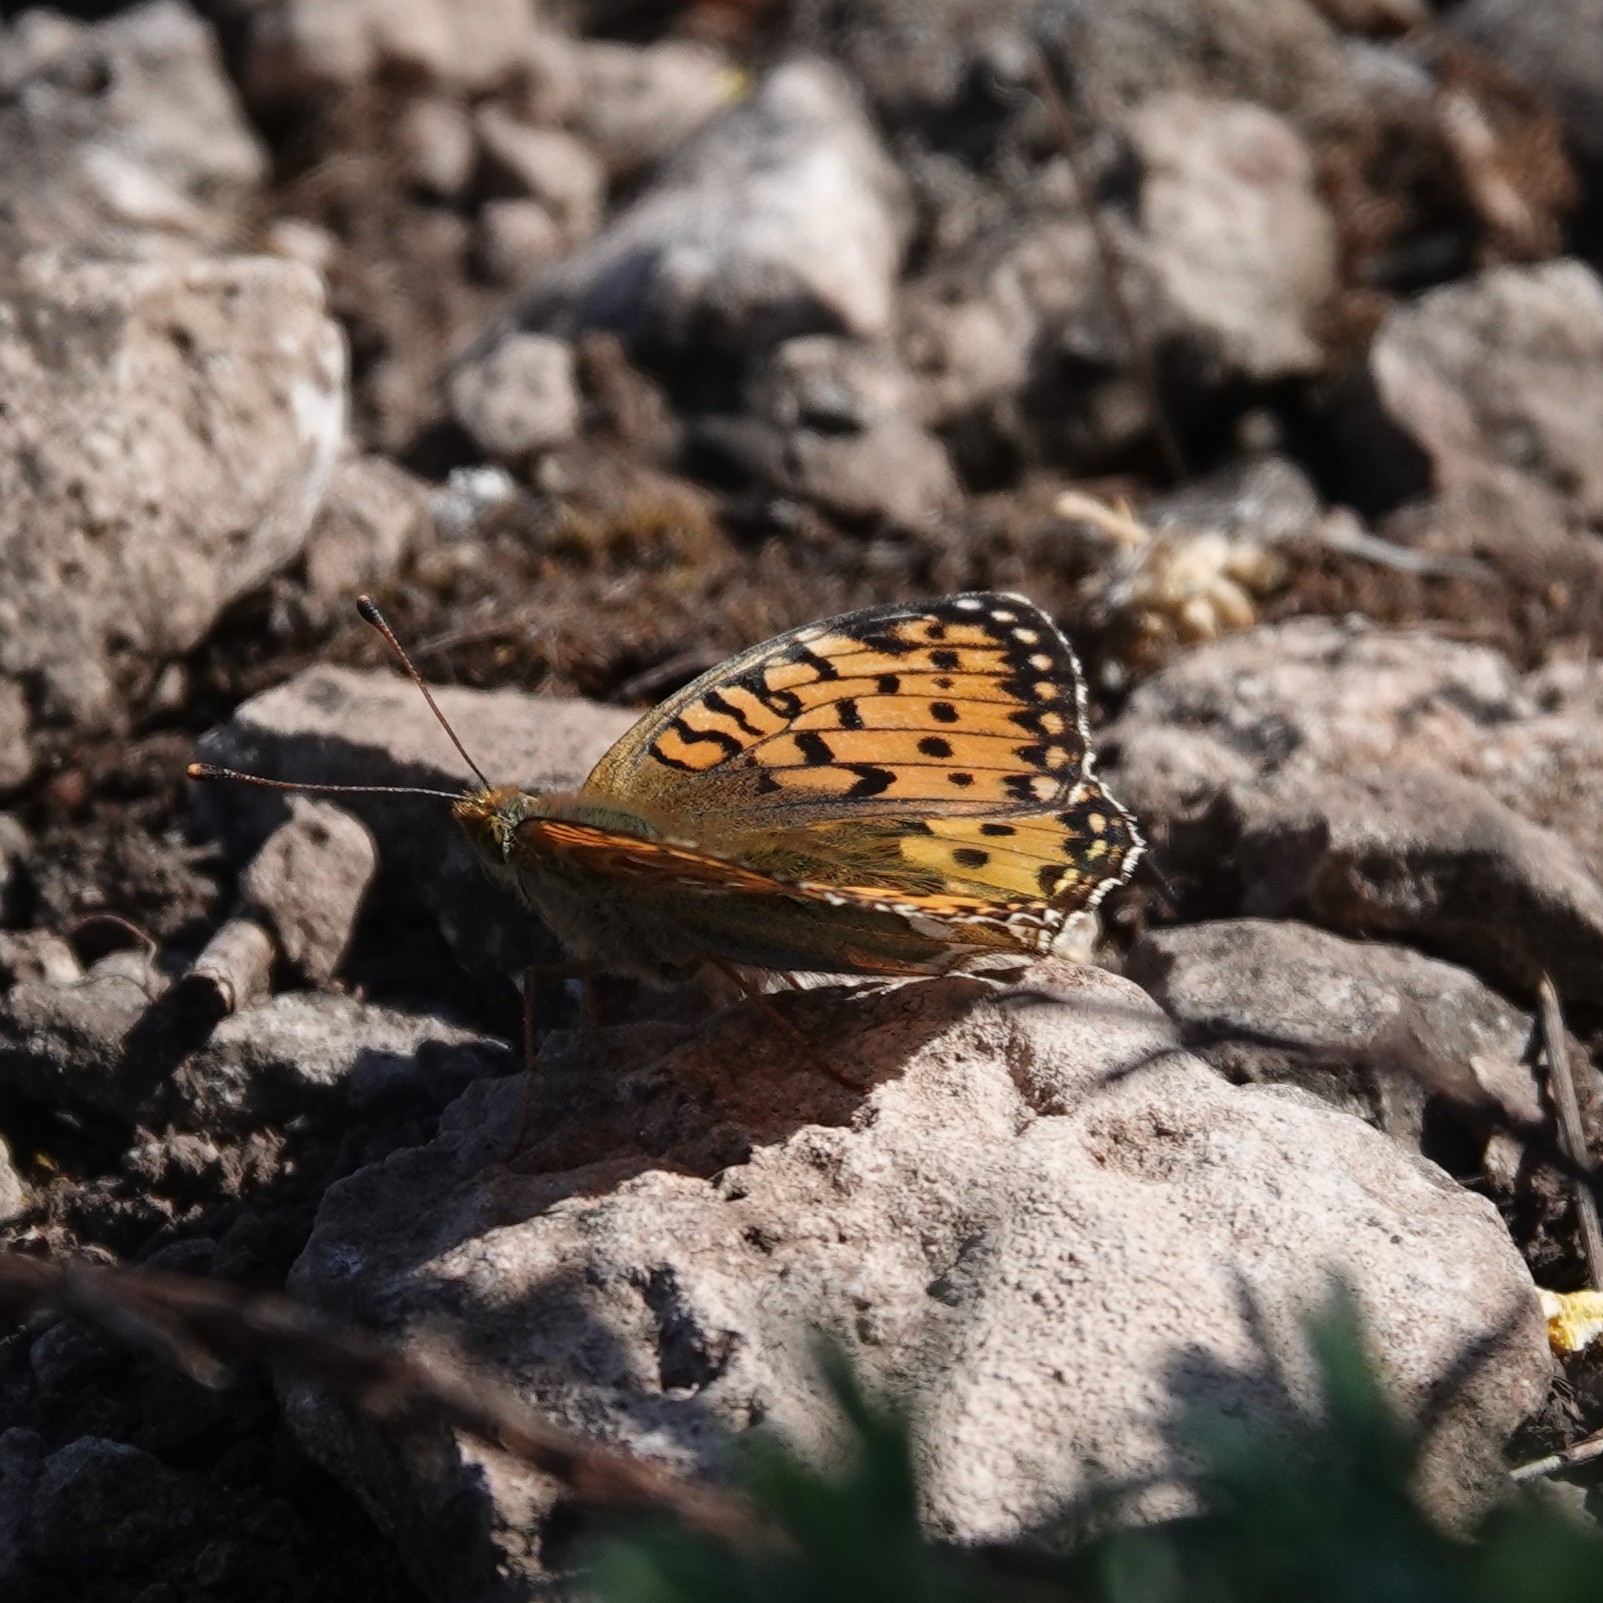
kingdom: Animalia
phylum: Arthropoda
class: Insecta
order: Lepidoptera
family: Nymphalidae
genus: Speyeria
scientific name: Speyeria aglaja
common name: Dark green fritillary
